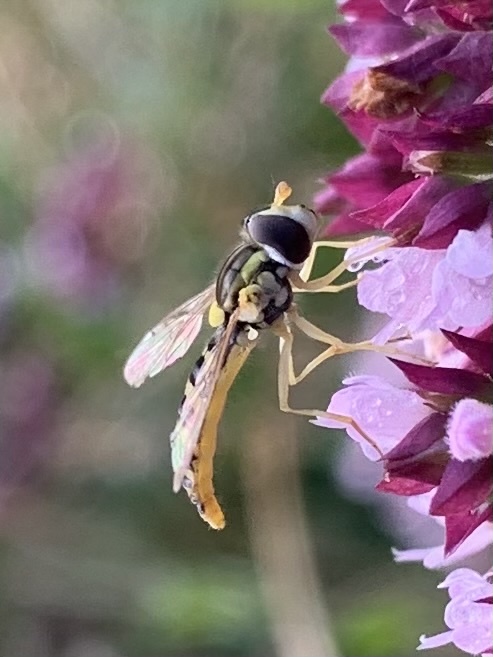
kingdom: Animalia
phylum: Arthropoda
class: Insecta
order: Diptera
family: Syrphidae
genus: Sphaerophoria
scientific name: Sphaerophoria
